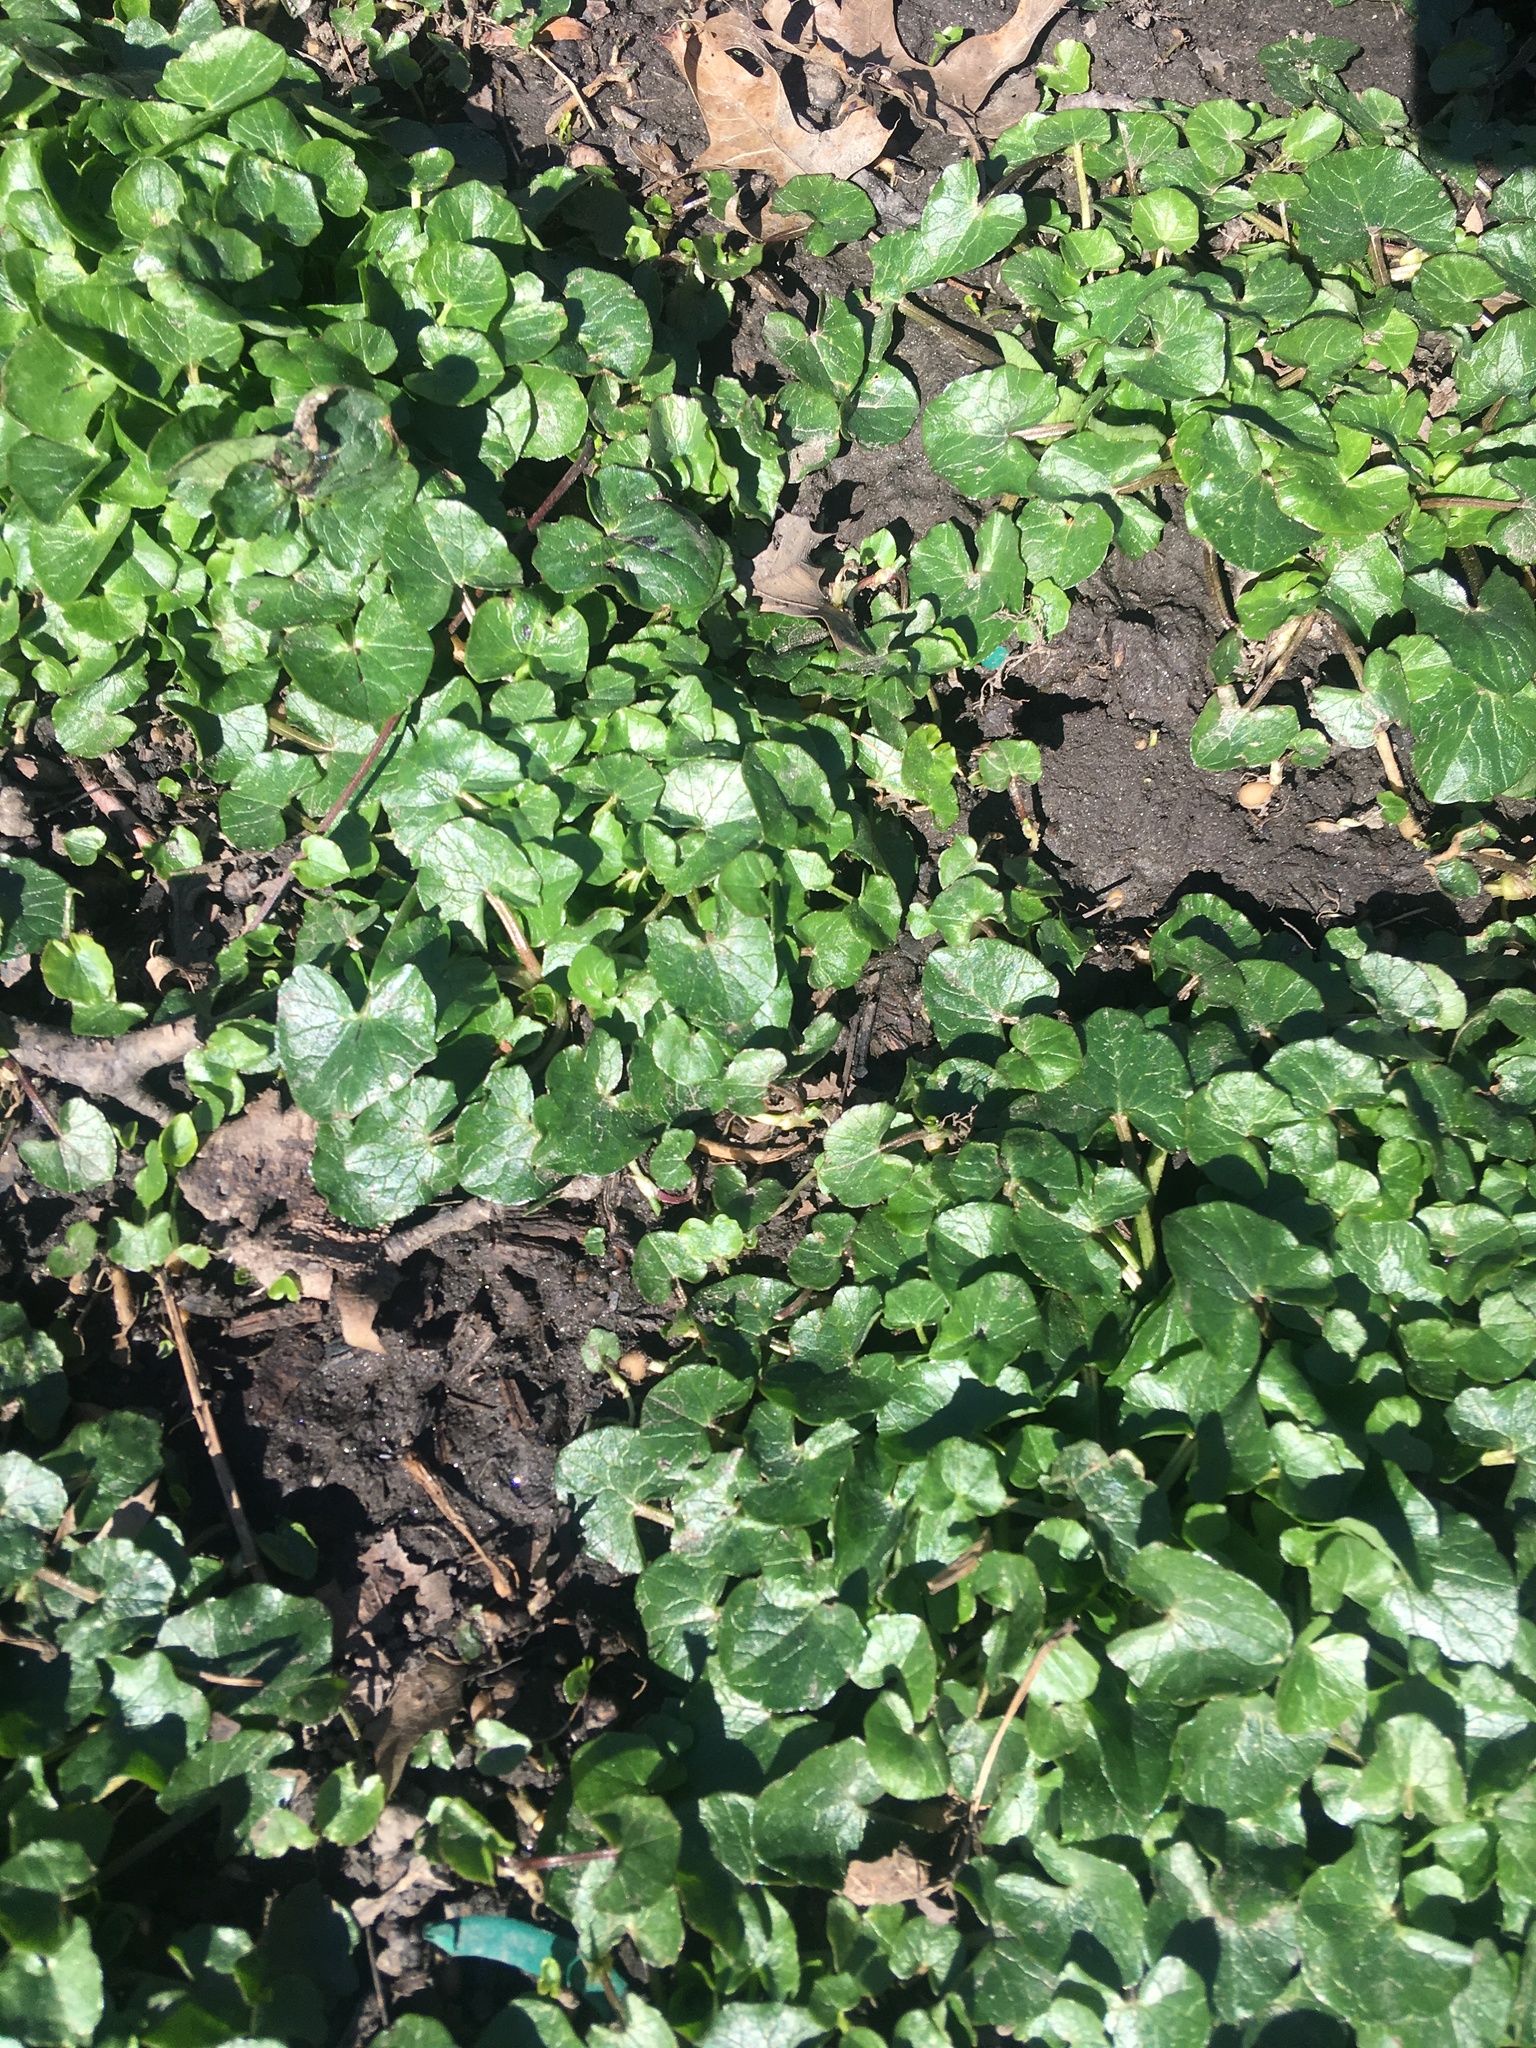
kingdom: Plantae
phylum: Tracheophyta
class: Magnoliopsida
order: Ranunculales
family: Ranunculaceae
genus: Ficaria
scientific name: Ficaria verna
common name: Lesser celandine
